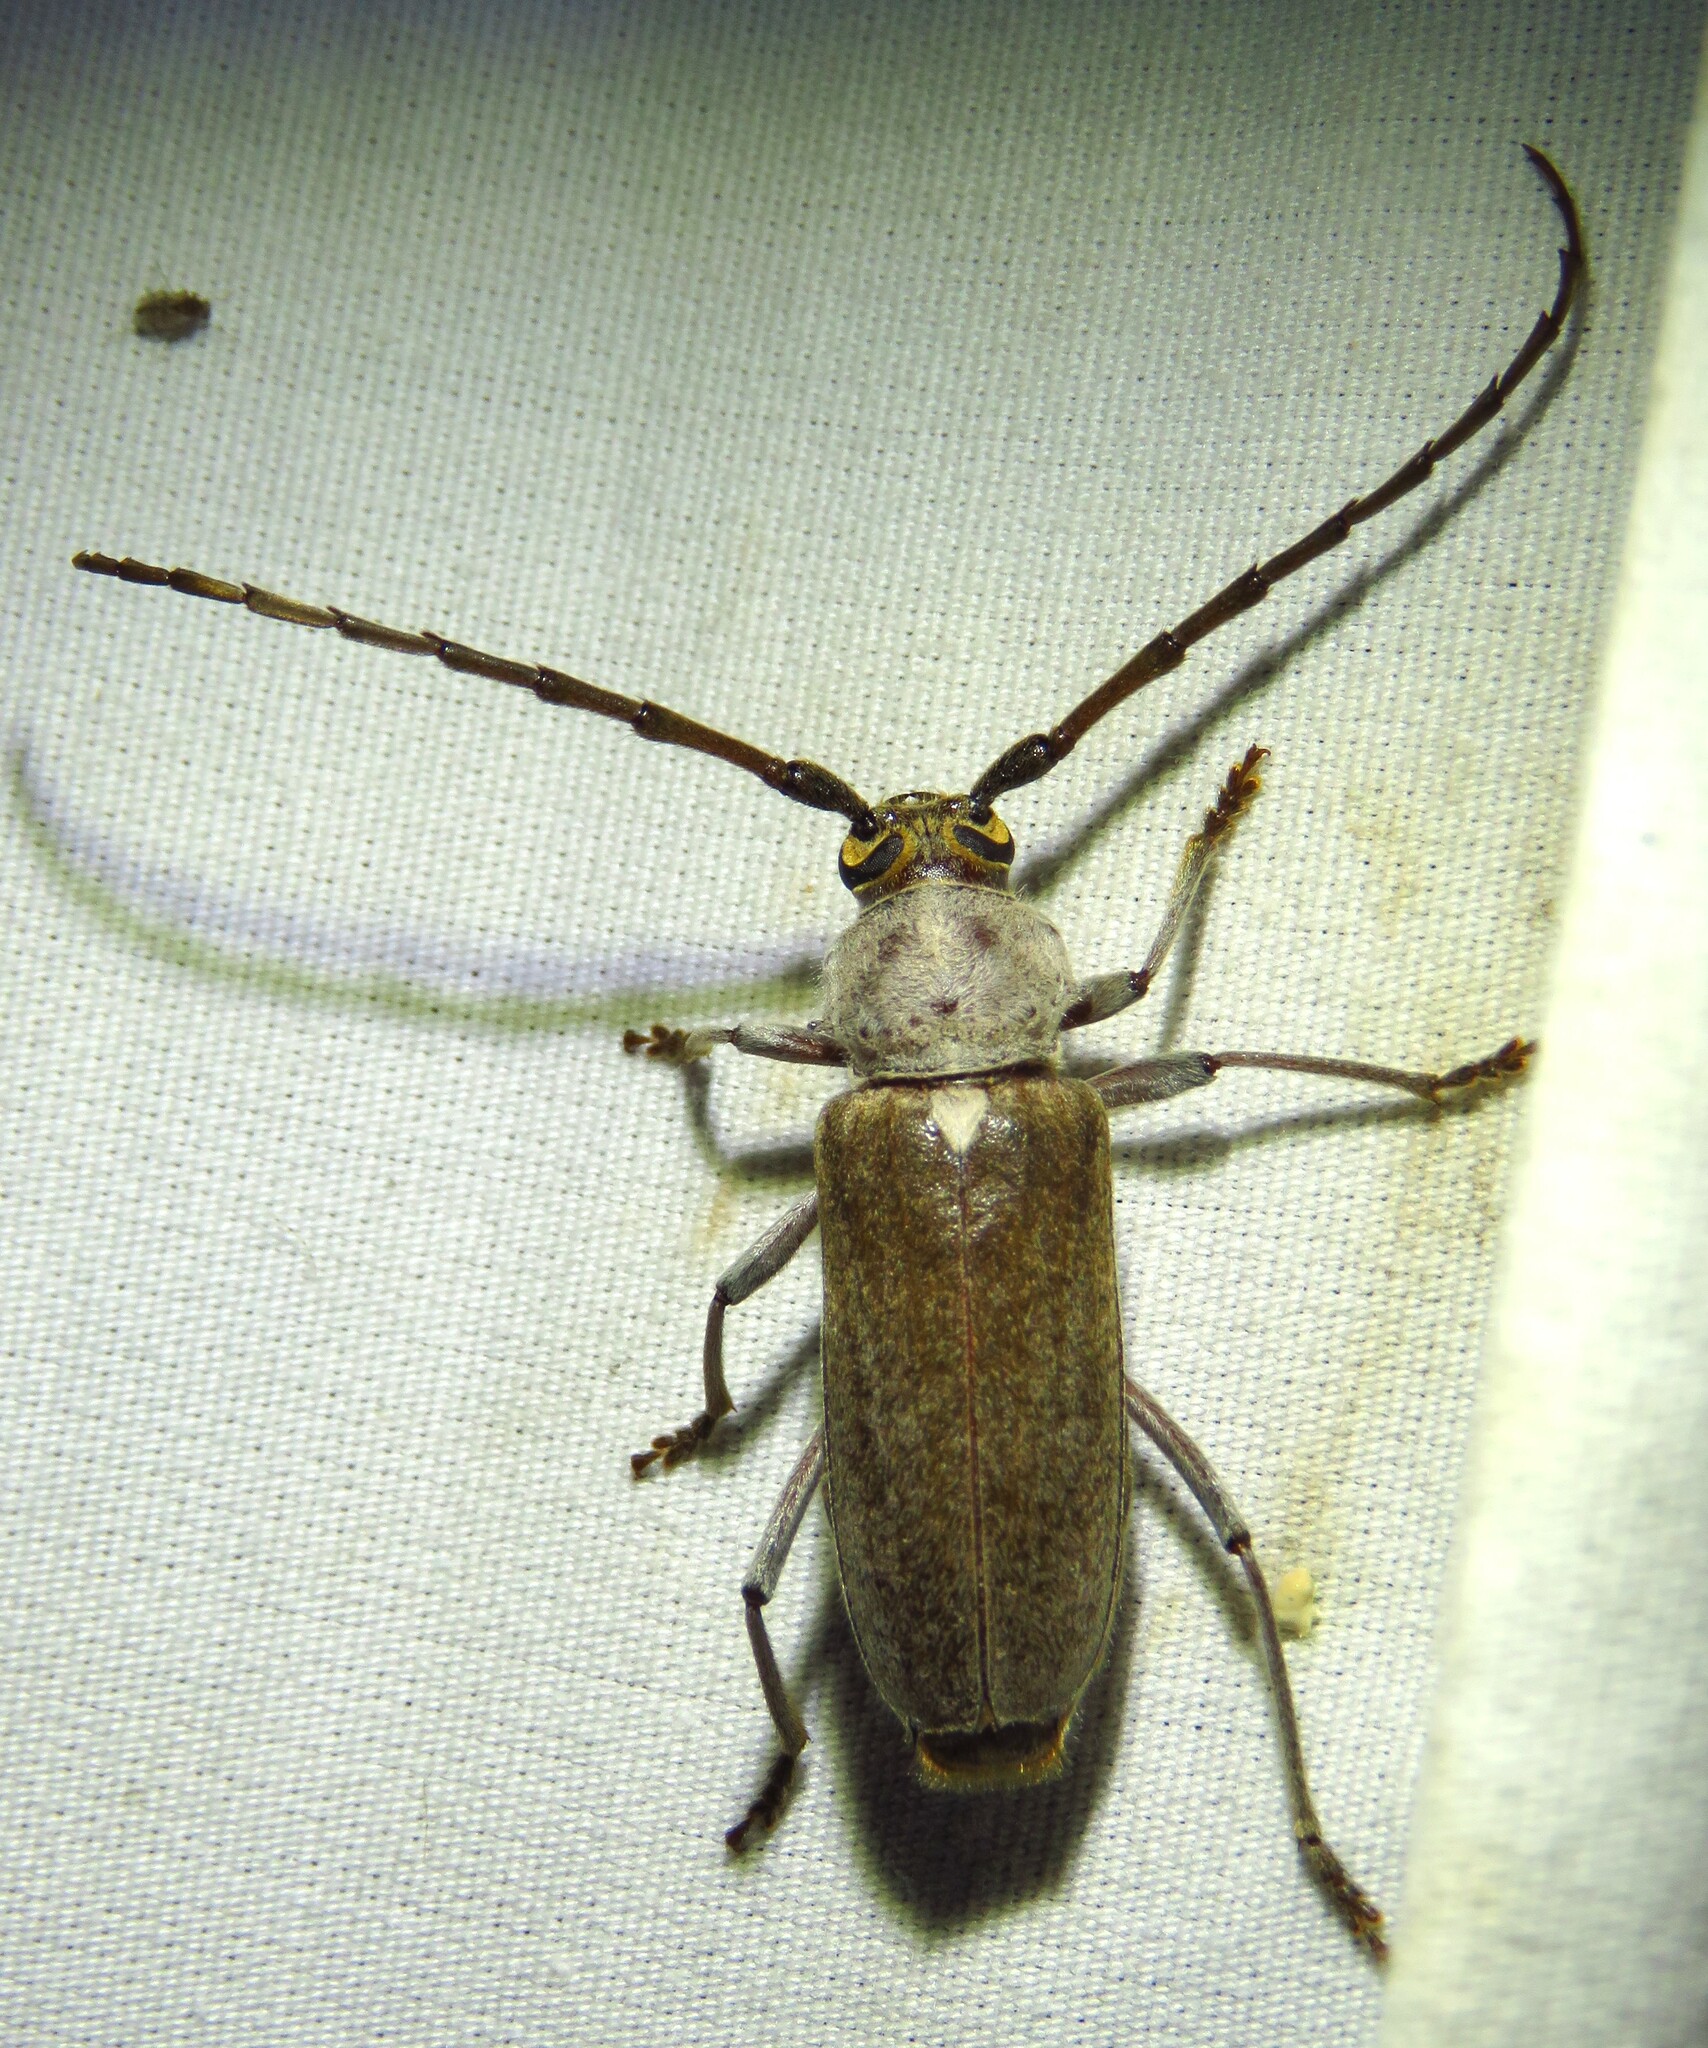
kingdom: Animalia
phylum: Arthropoda
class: Insecta
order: Coleoptera
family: Cerambycidae
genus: Gnaphalodes
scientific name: Gnaphalodes trachyderoides
